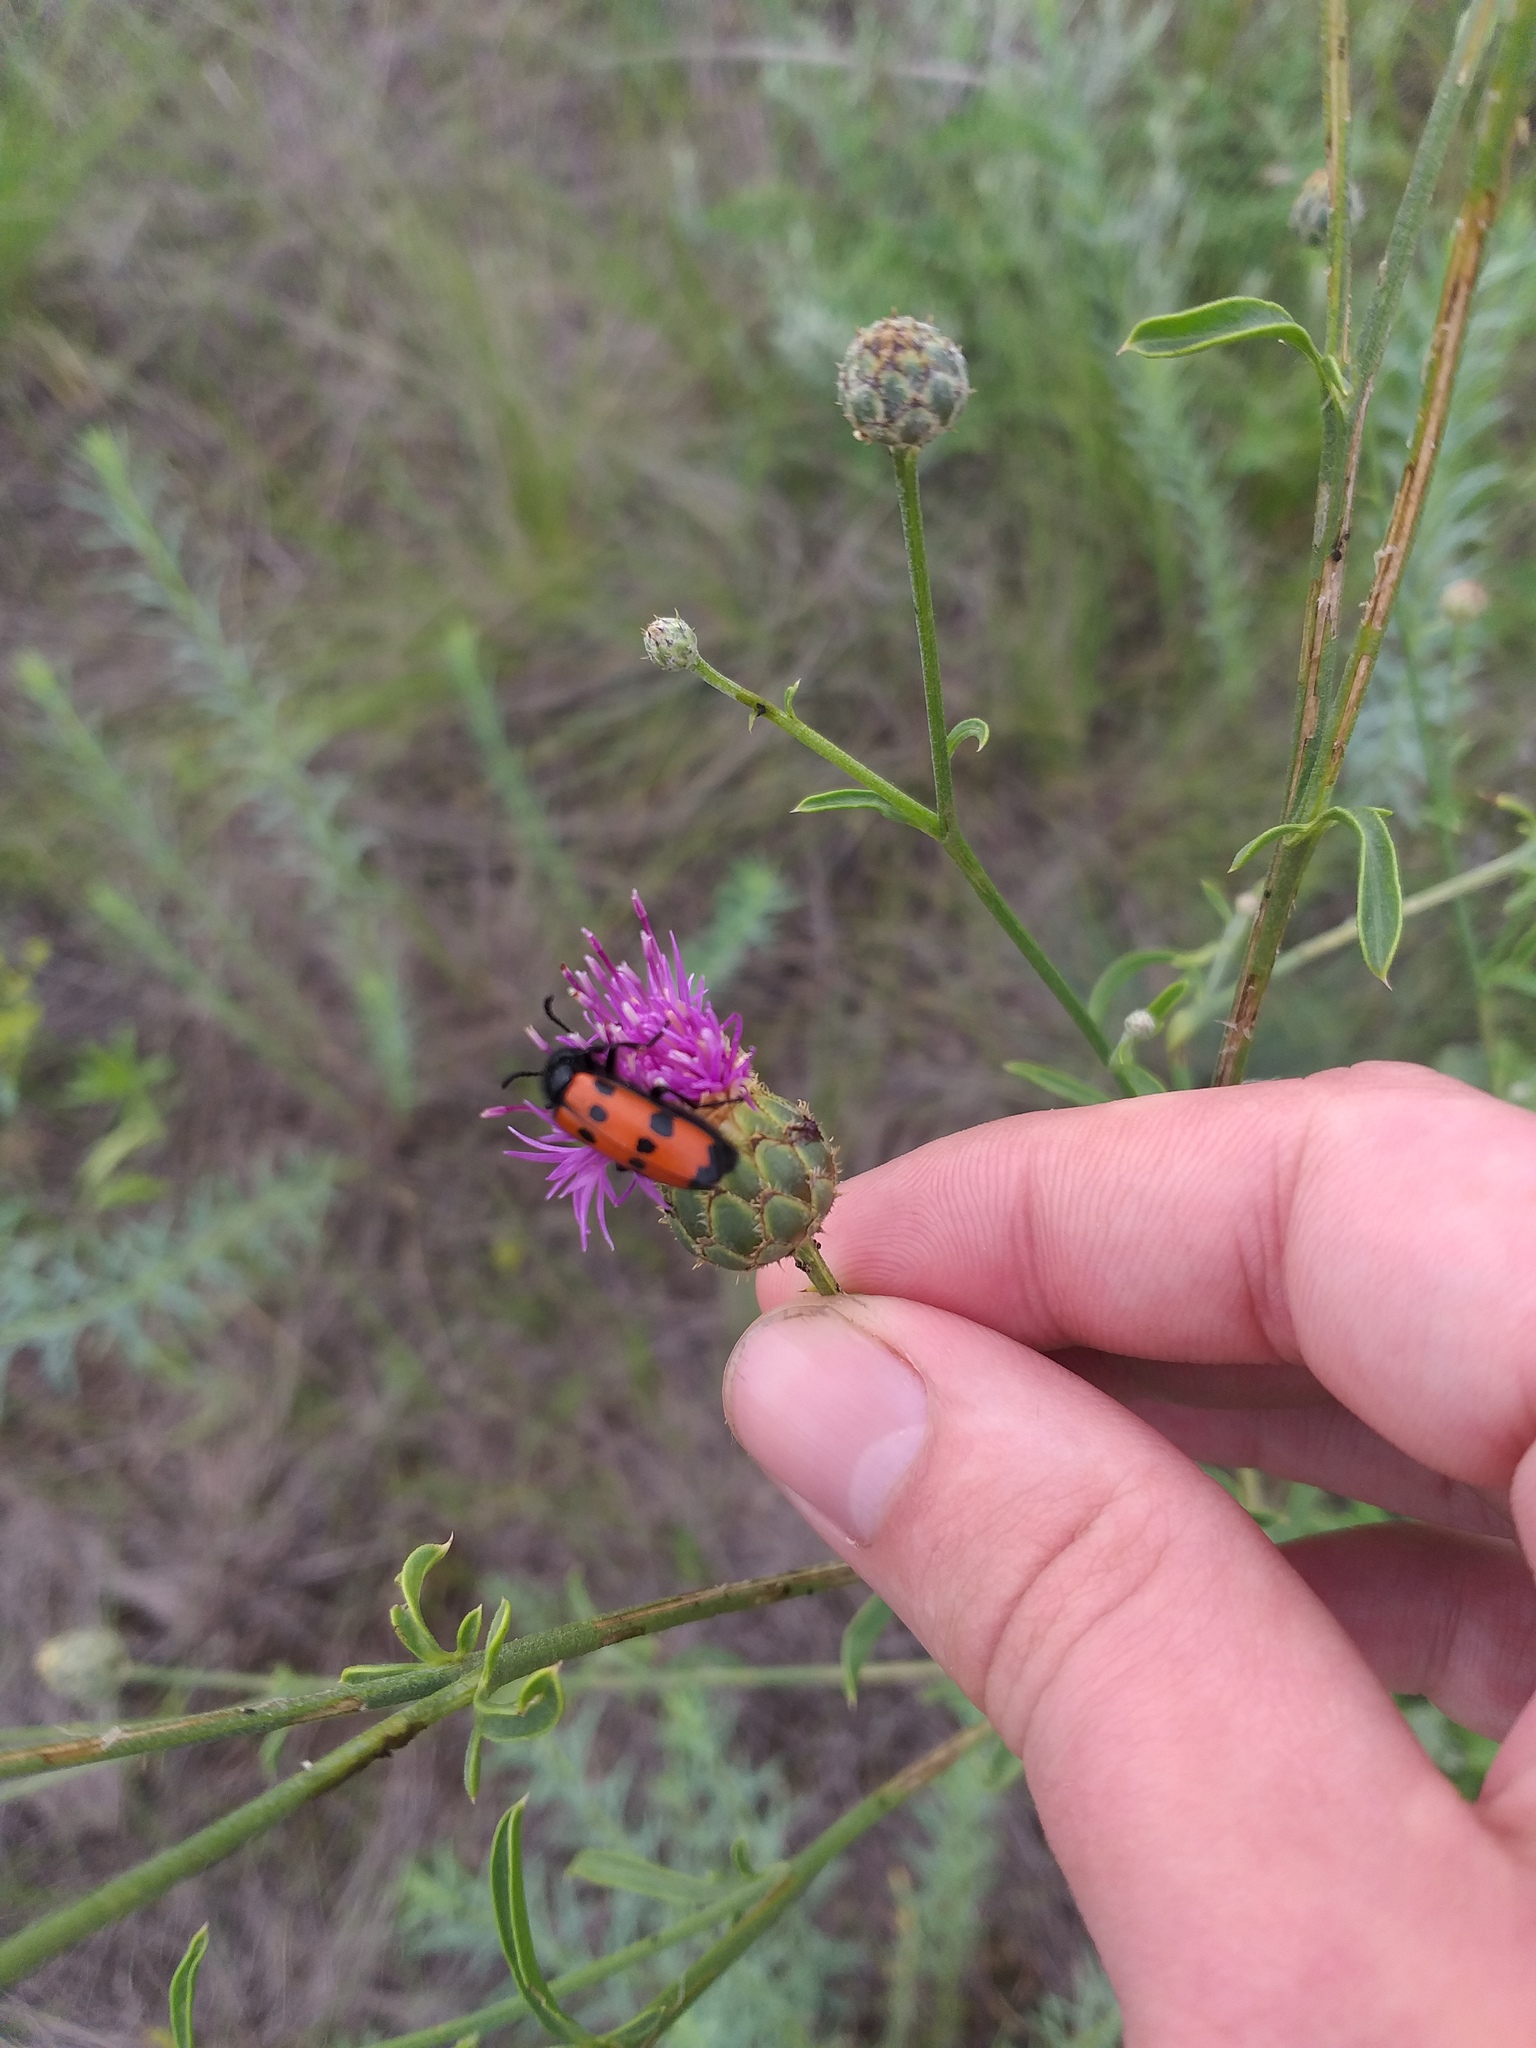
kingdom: Plantae
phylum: Tracheophyta
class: Magnoliopsida
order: Asterales
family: Asteraceae
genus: Centaurea
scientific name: Centaurea scabiosa
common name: Greater knapweed
